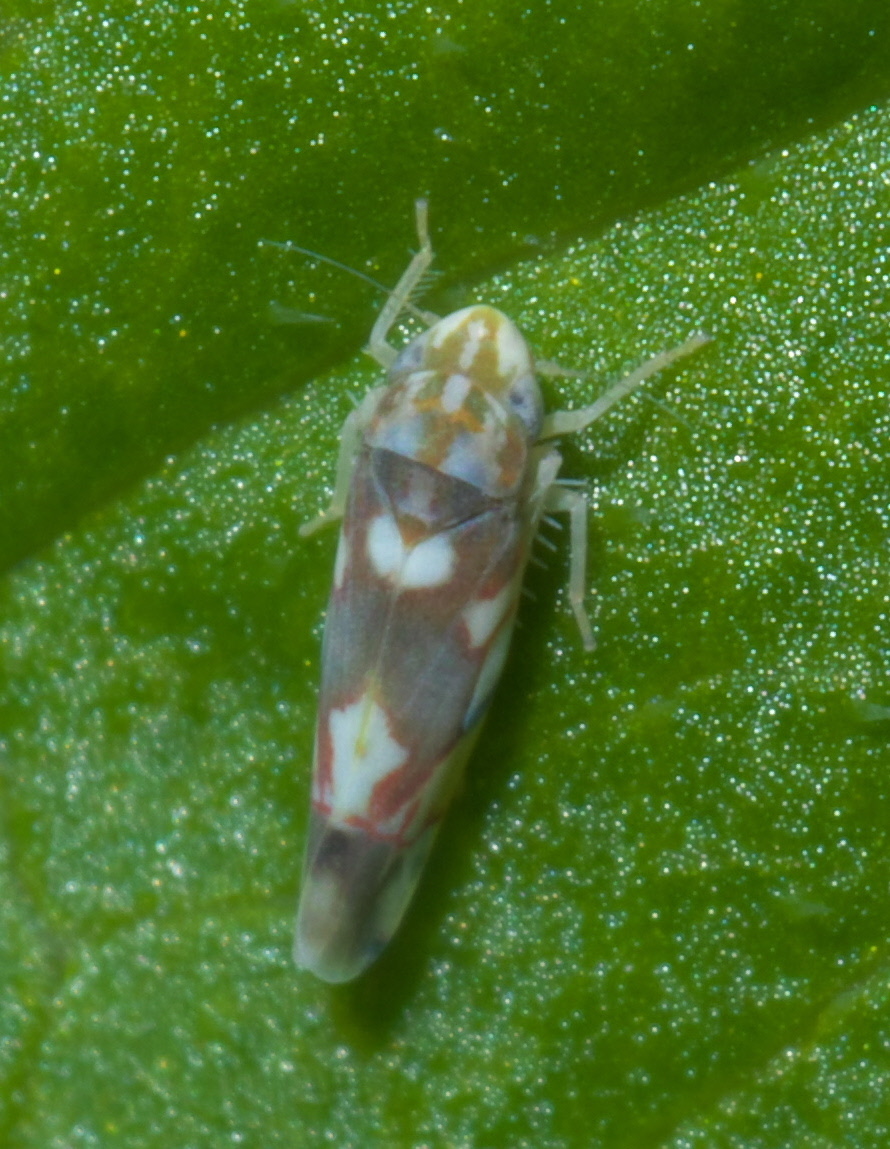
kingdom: Animalia
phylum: Arthropoda
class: Insecta
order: Hemiptera
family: Cicadellidae
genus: Erythroneura
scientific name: Erythroneura elegans
